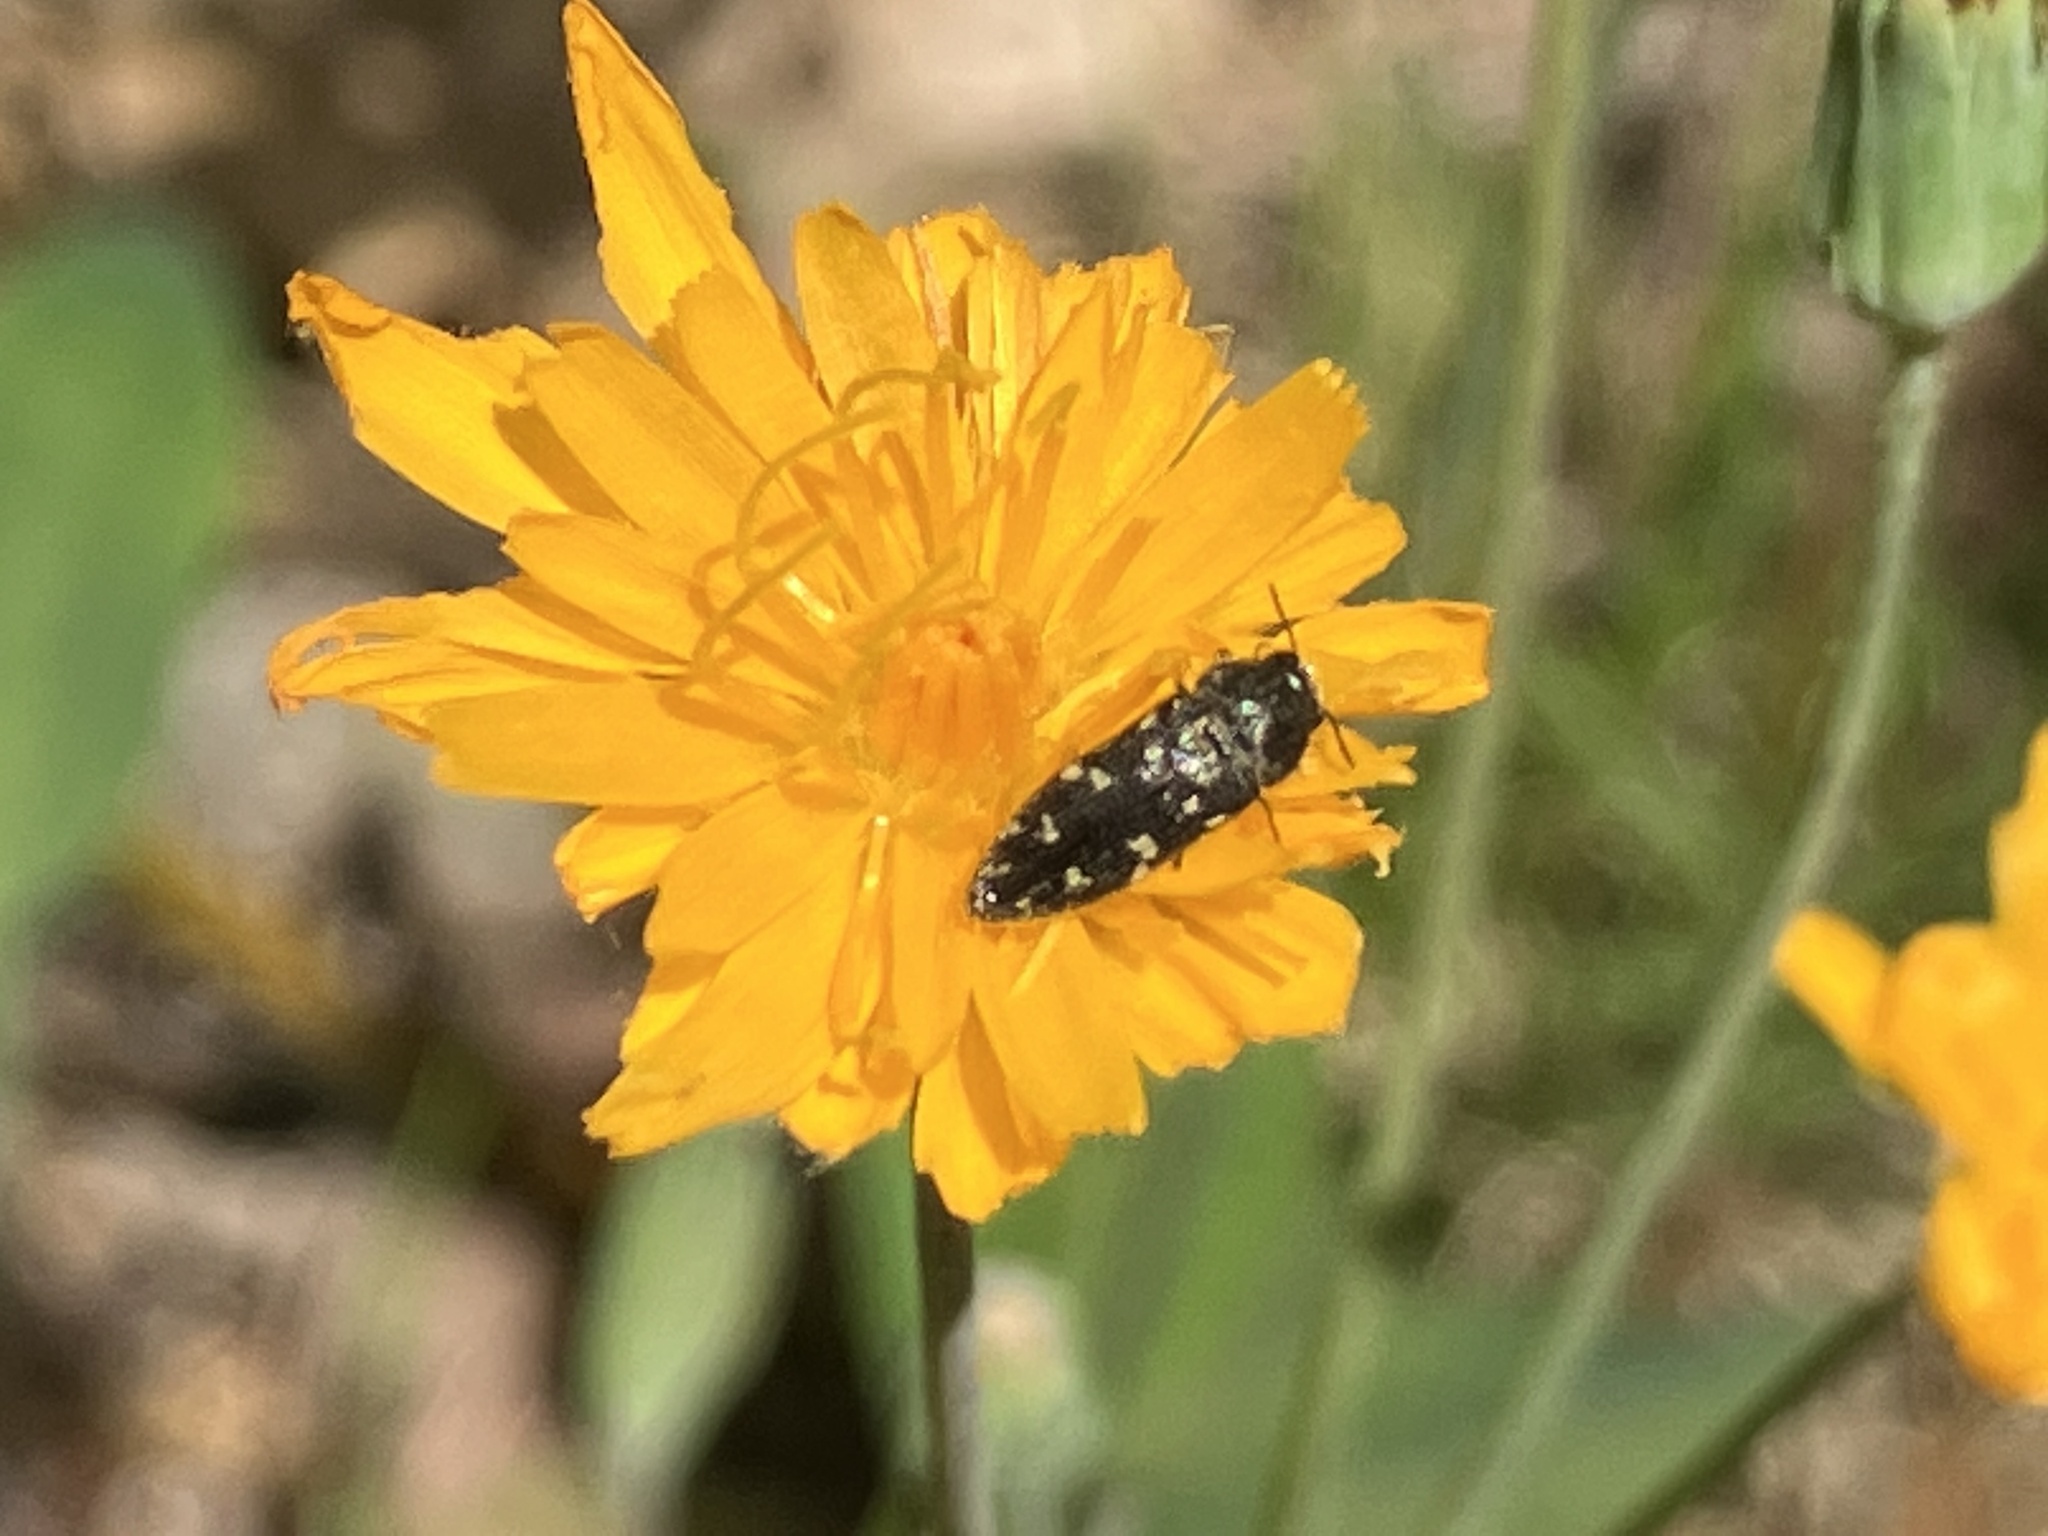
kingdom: Animalia
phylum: Arthropoda
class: Insecta
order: Coleoptera
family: Buprestidae
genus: Acmaeodera
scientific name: Acmaeodera tubulus
